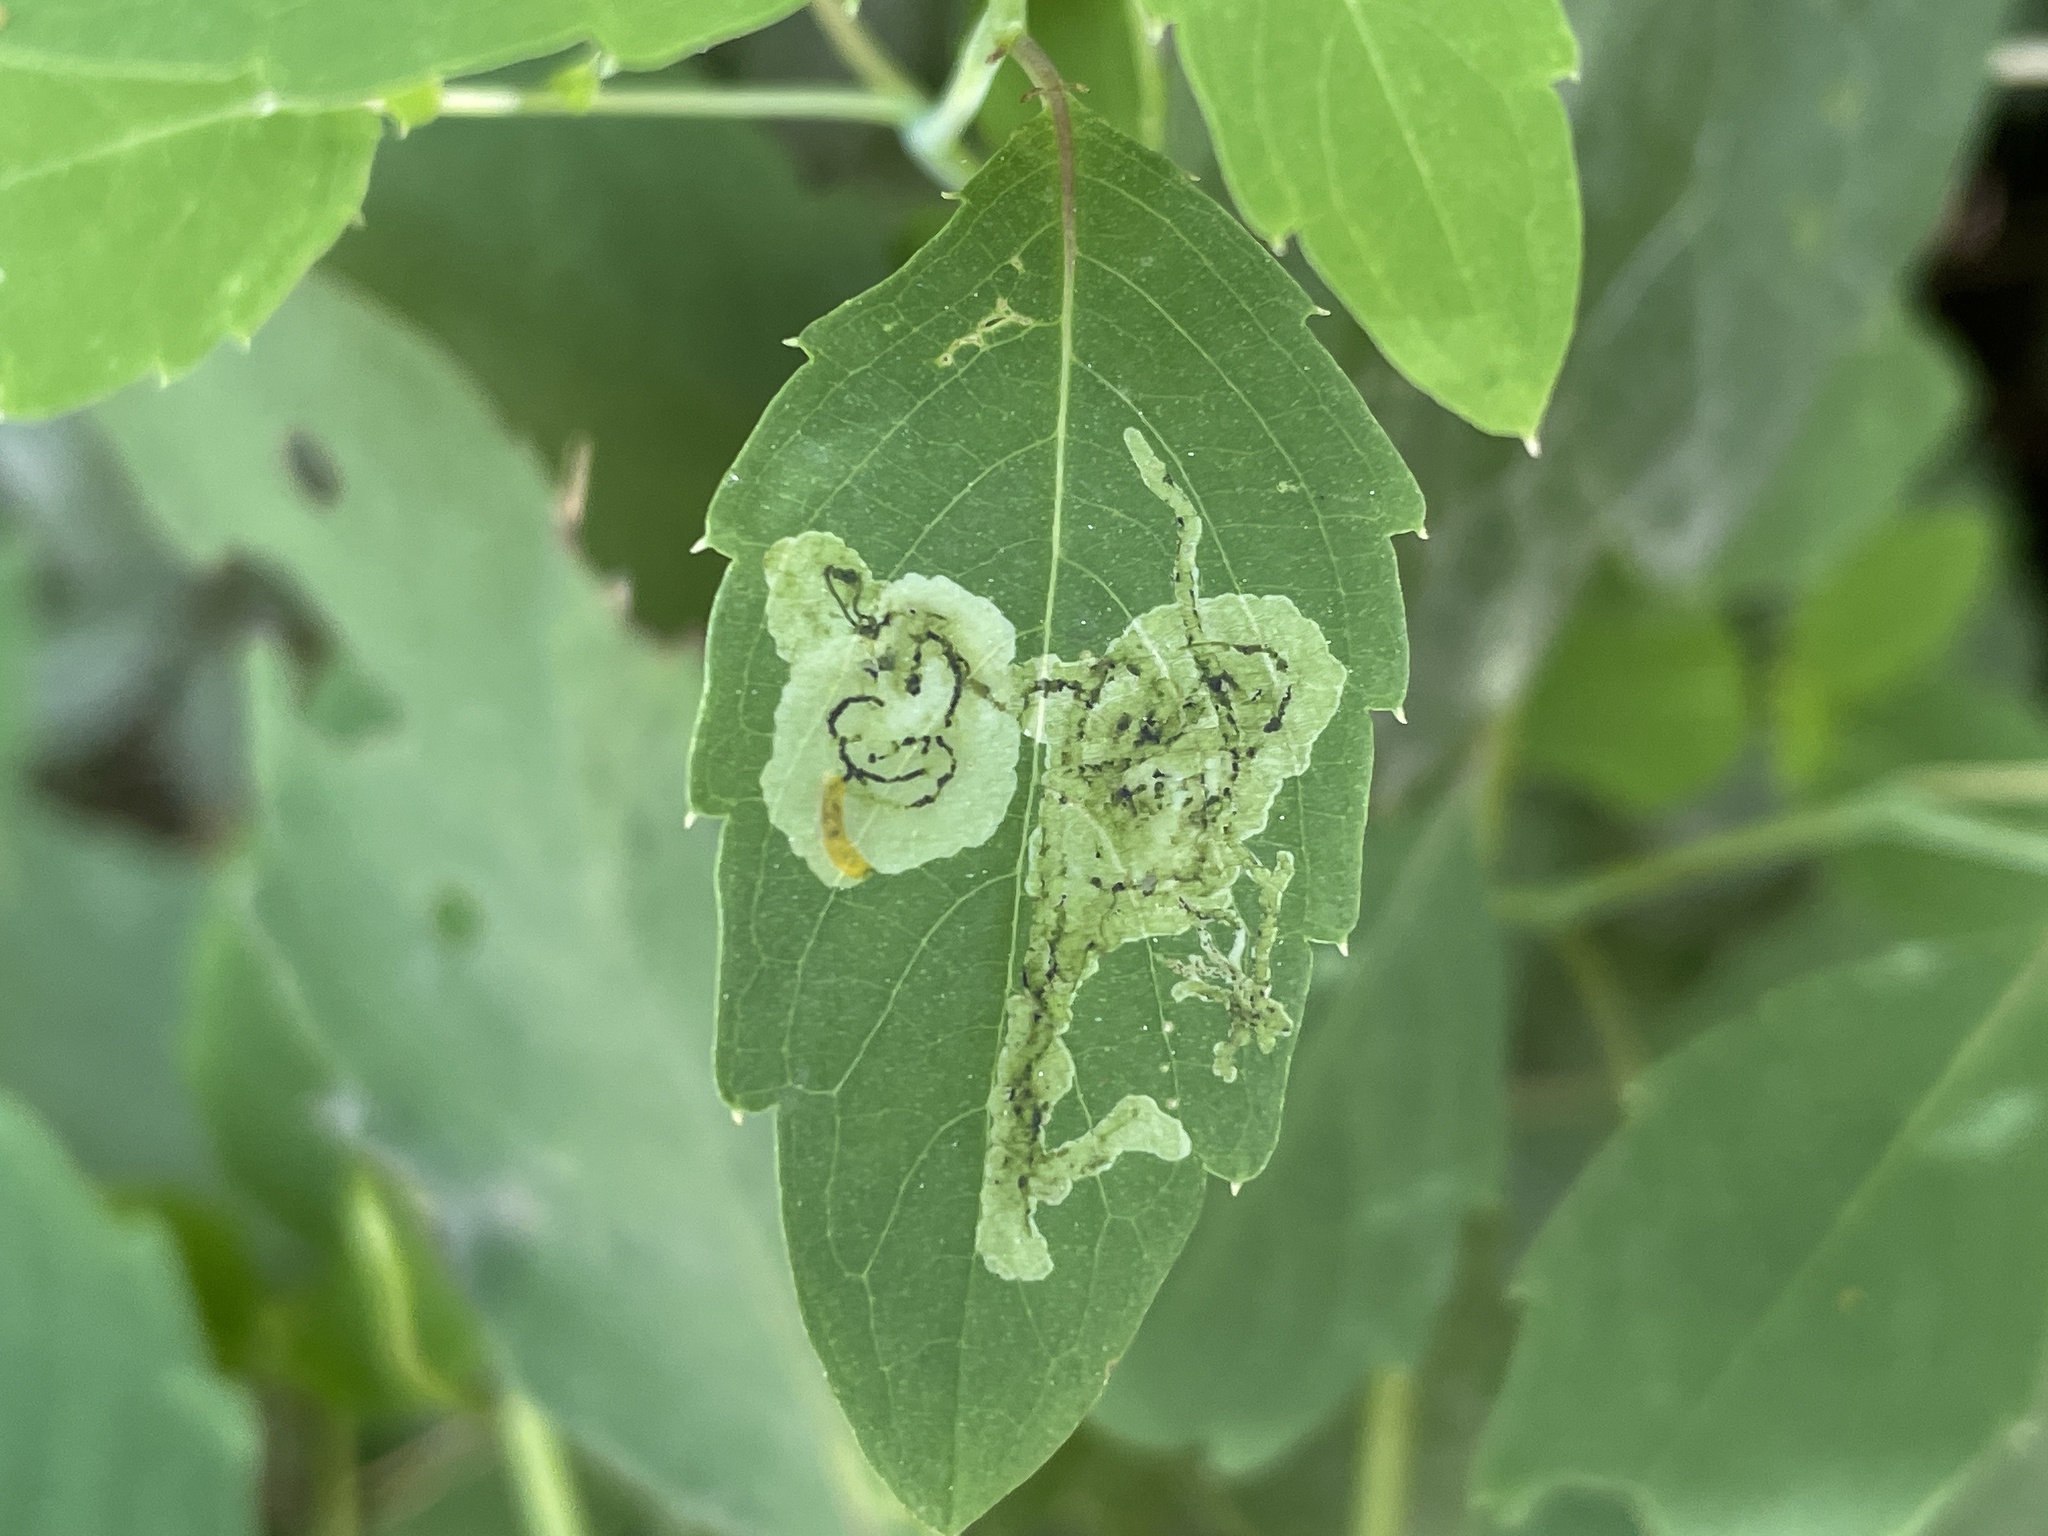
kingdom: Animalia
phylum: Arthropoda
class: Insecta
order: Diptera
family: Agromyzidae
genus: Phytoliriomyza
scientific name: Phytoliriomyza melampyga
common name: Jewelweed leaf-miner fly
